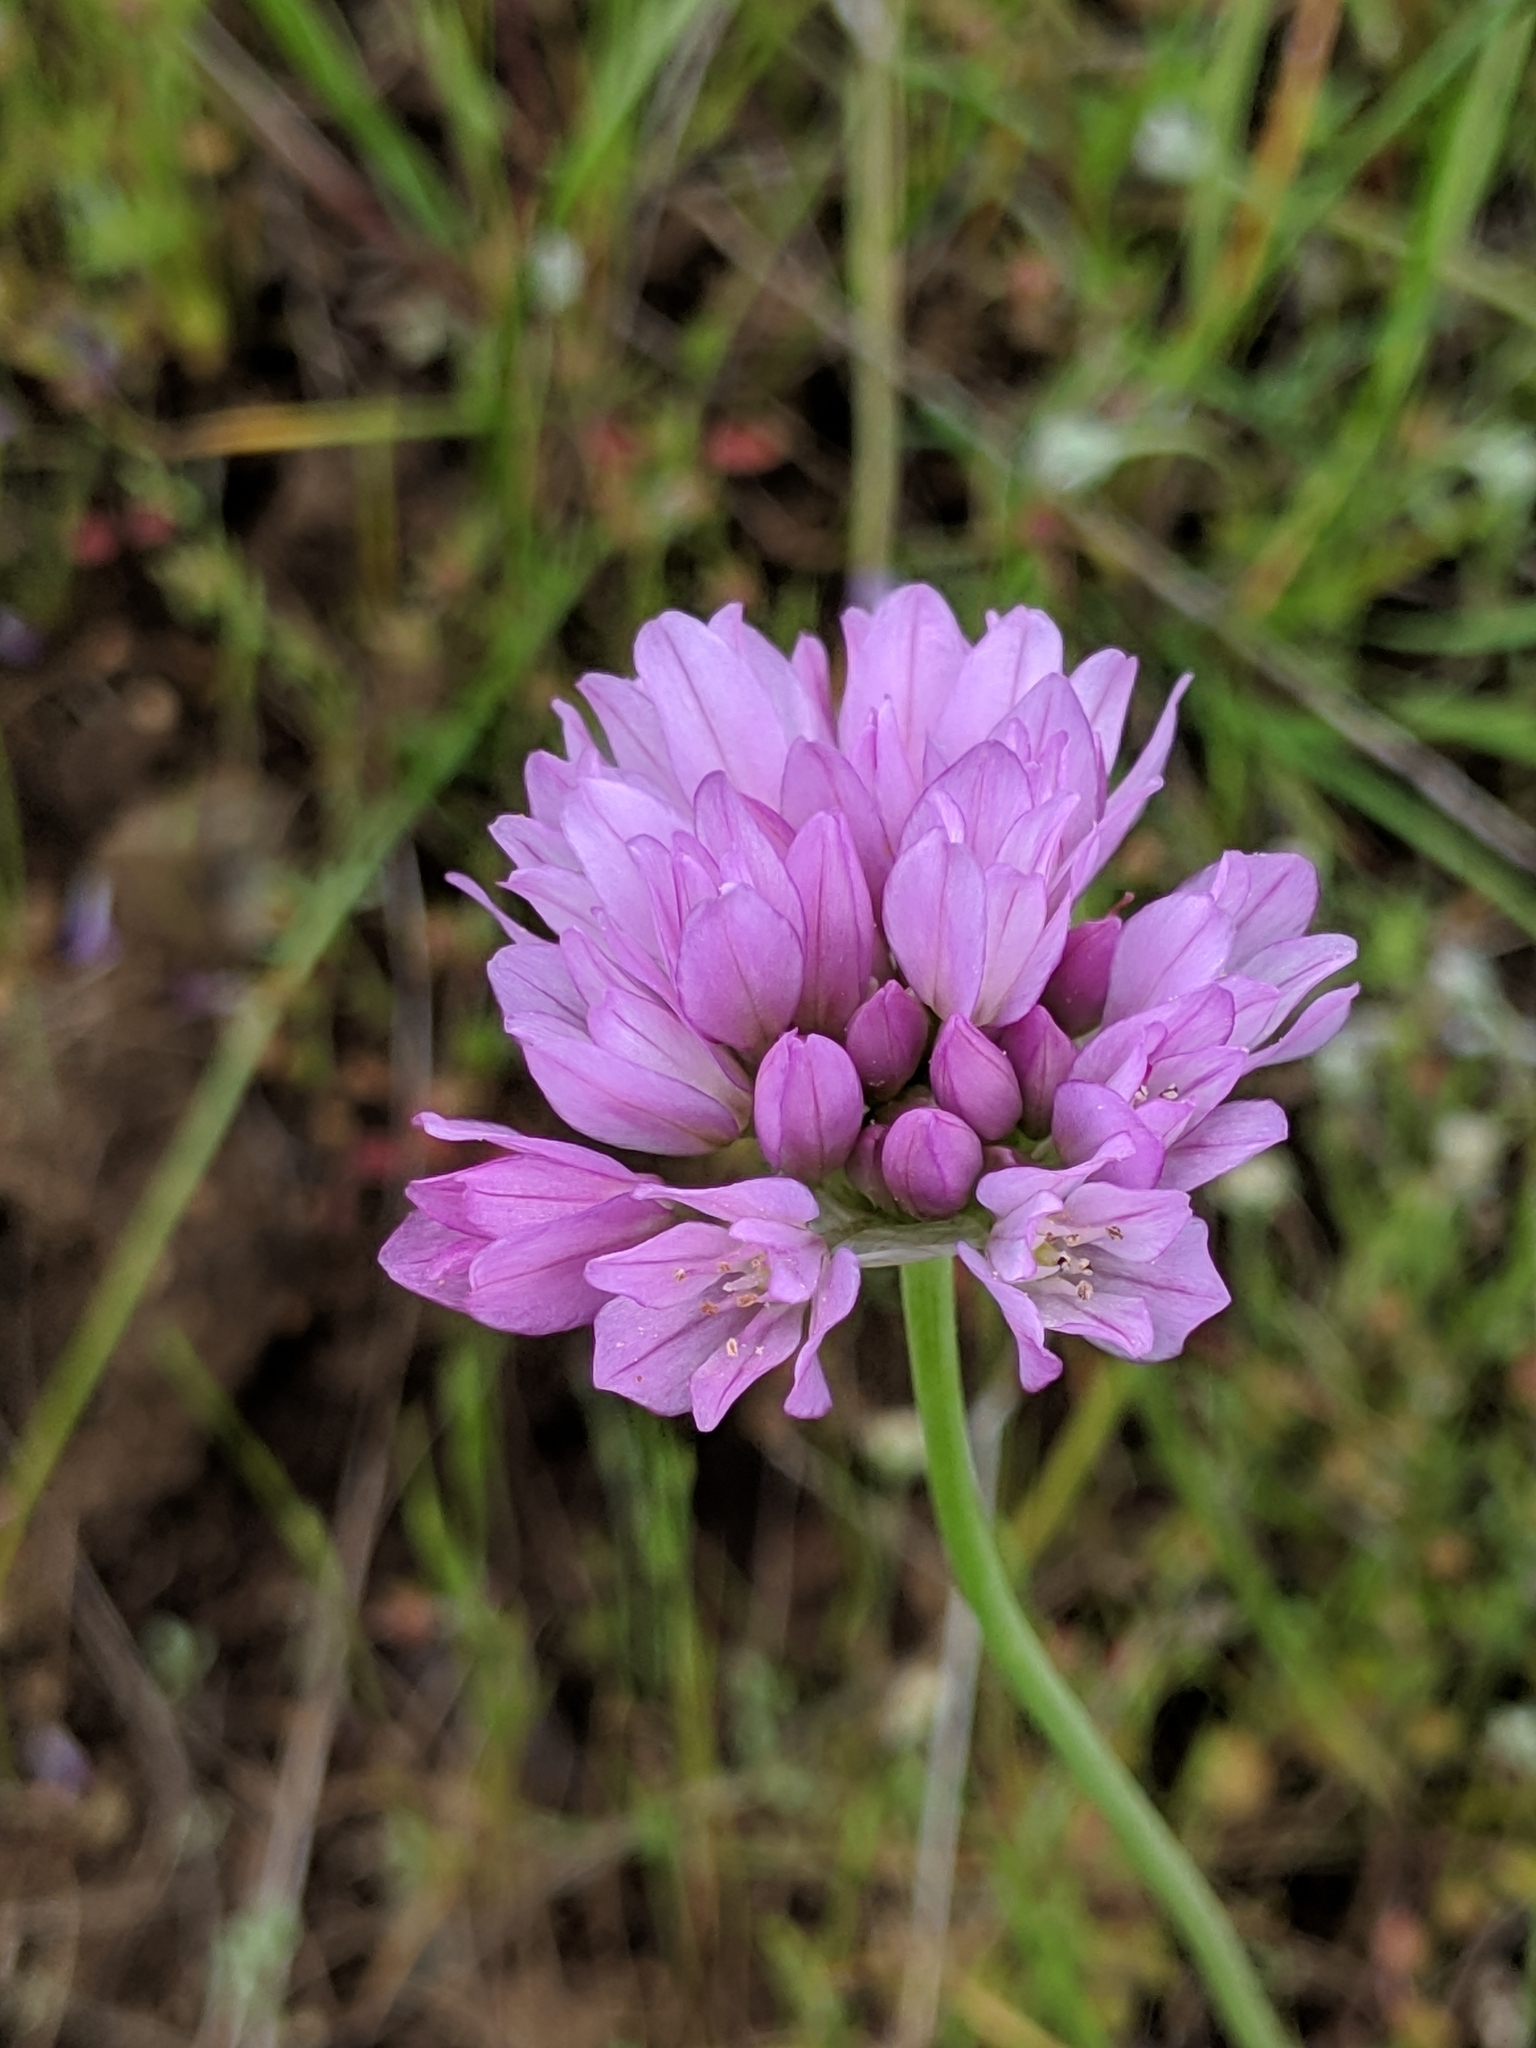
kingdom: Plantae
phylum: Tracheophyta
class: Liliopsida
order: Asparagales
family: Amaryllidaceae
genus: Allium
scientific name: Allium serra
